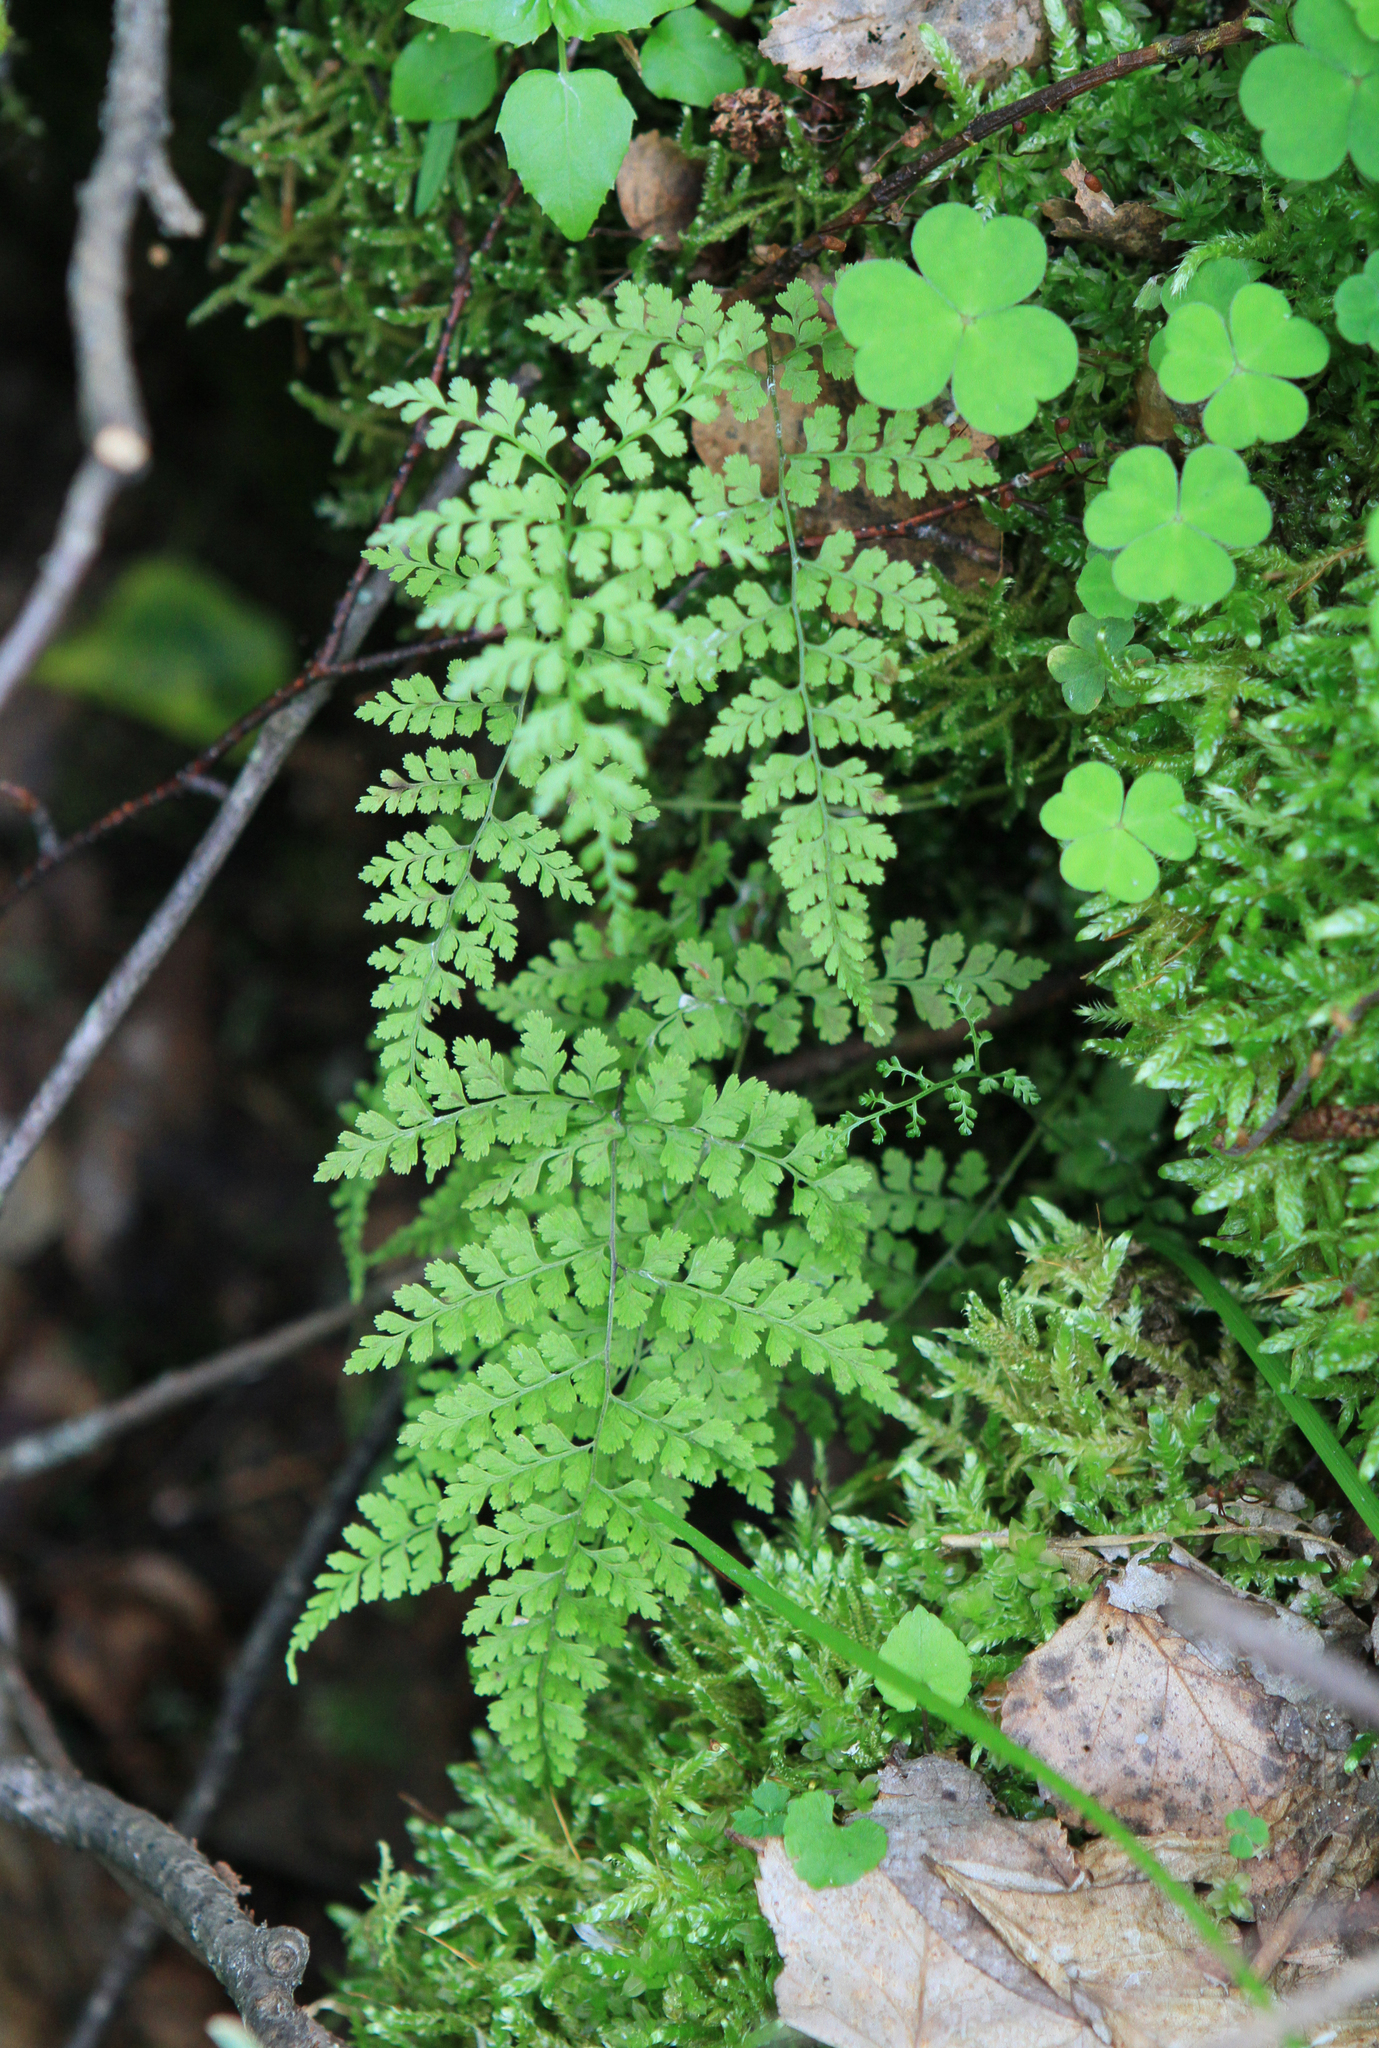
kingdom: Plantae
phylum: Tracheophyta
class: Polypodiopsida
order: Polypodiales
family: Cystopteridaceae
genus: Cystopteris
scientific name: Cystopteris sudetica
